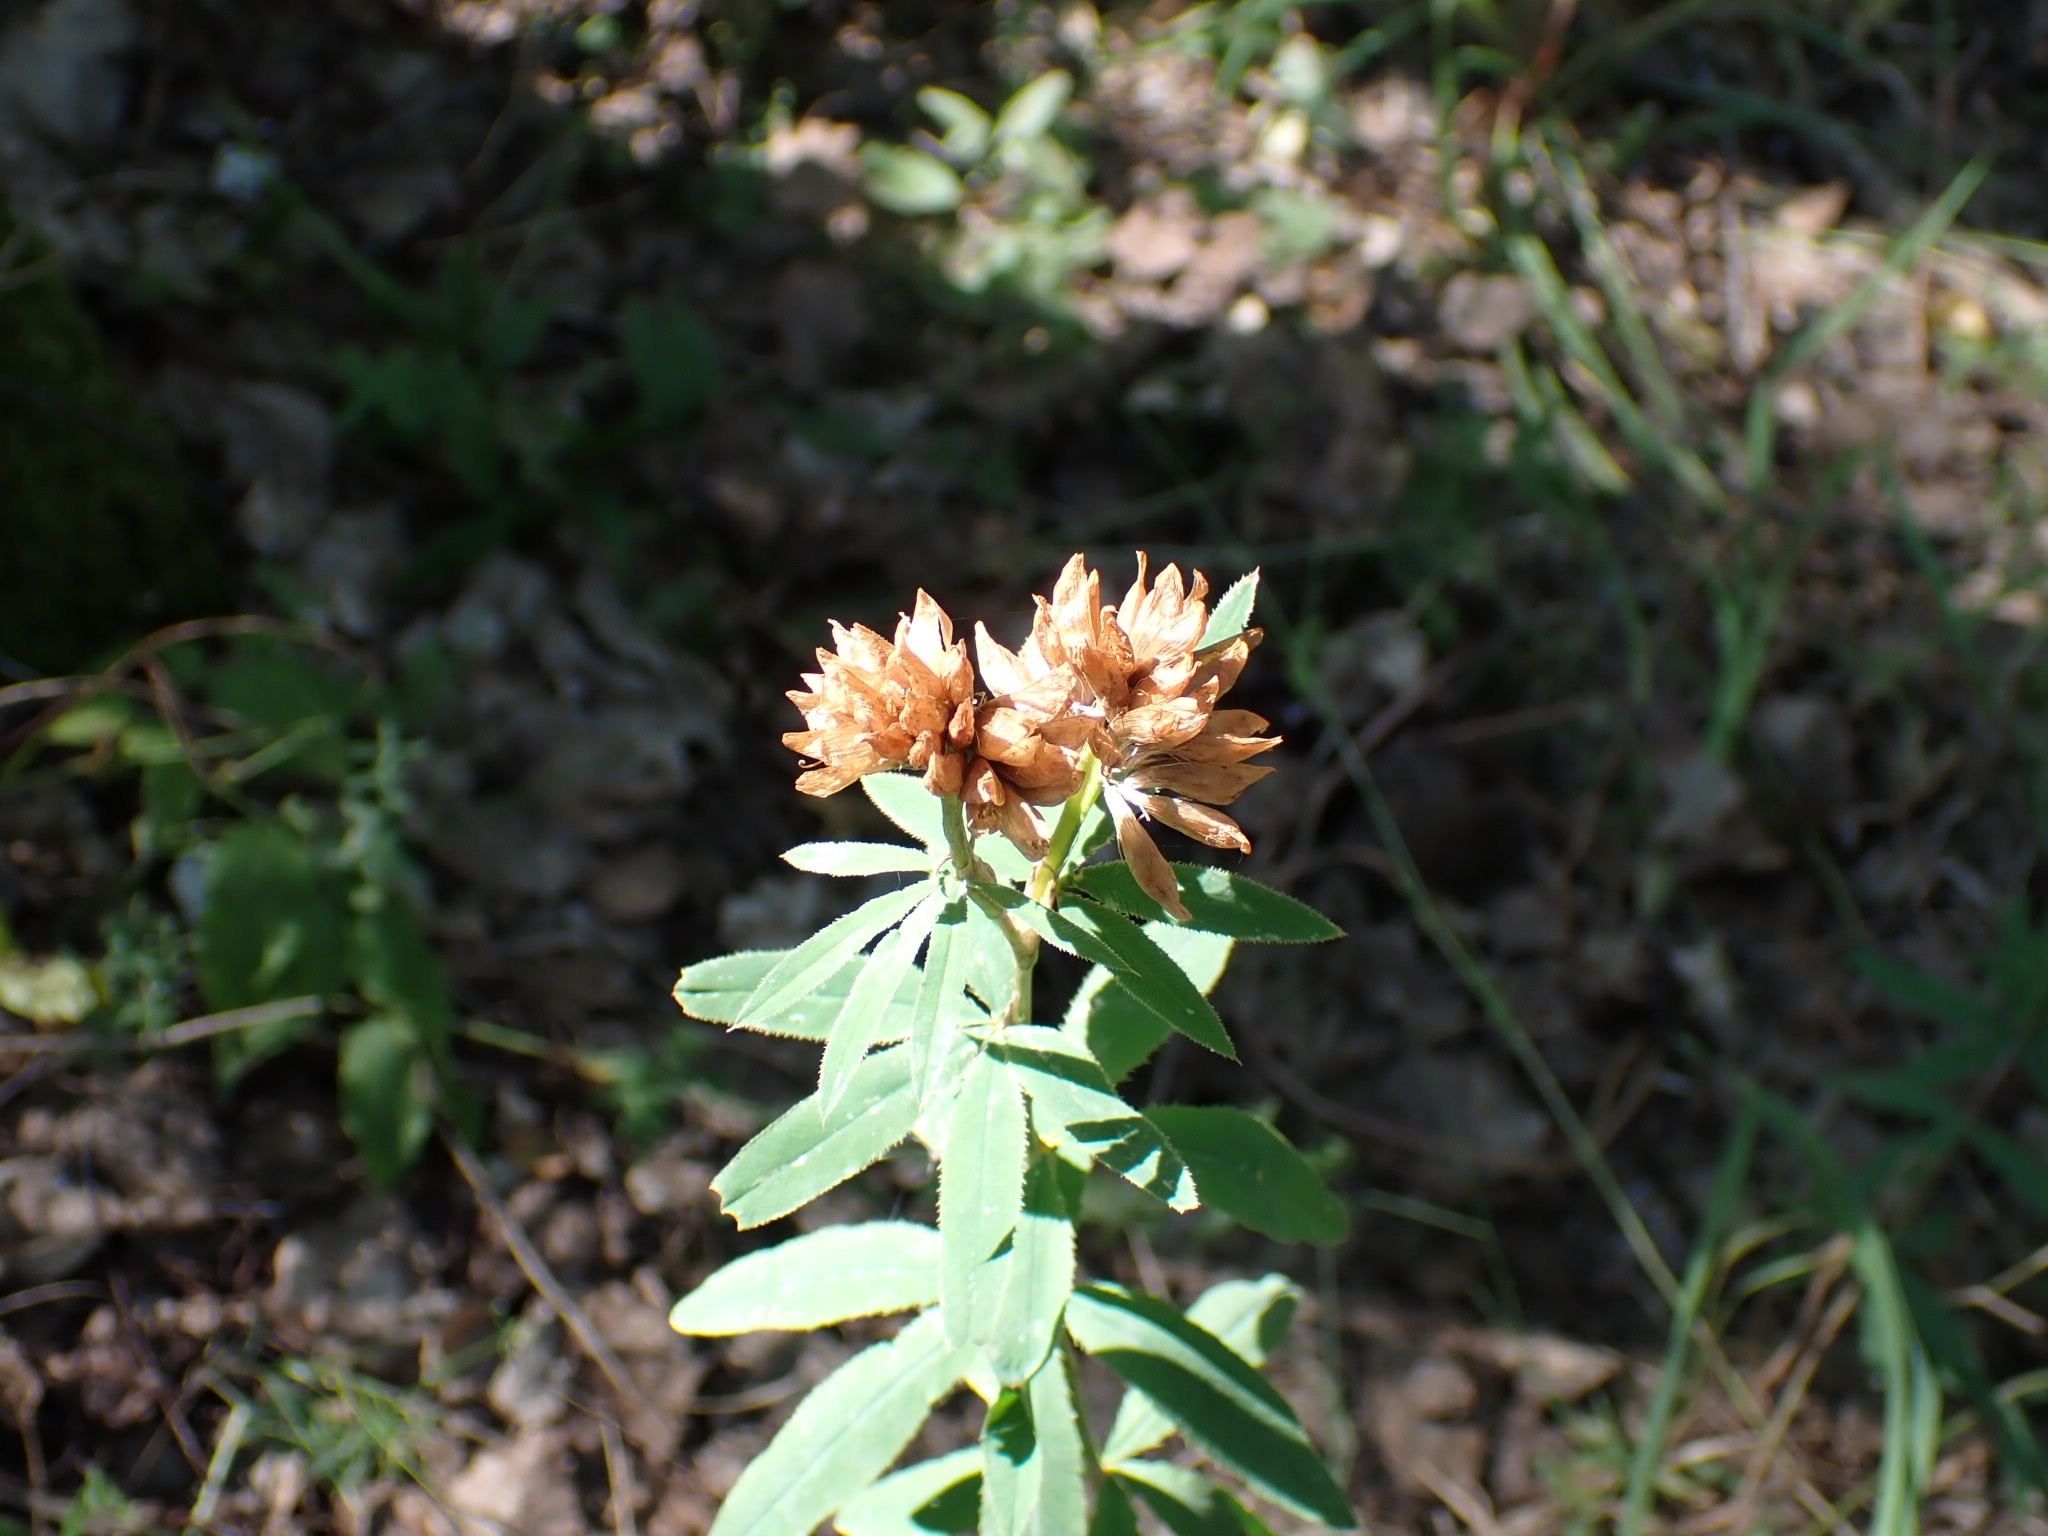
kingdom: Plantae
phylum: Tracheophyta
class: Magnoliopsida
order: Fabales
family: Fabaceae
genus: Trifolium
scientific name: Trifolium lupinaster
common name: Lupine clover
